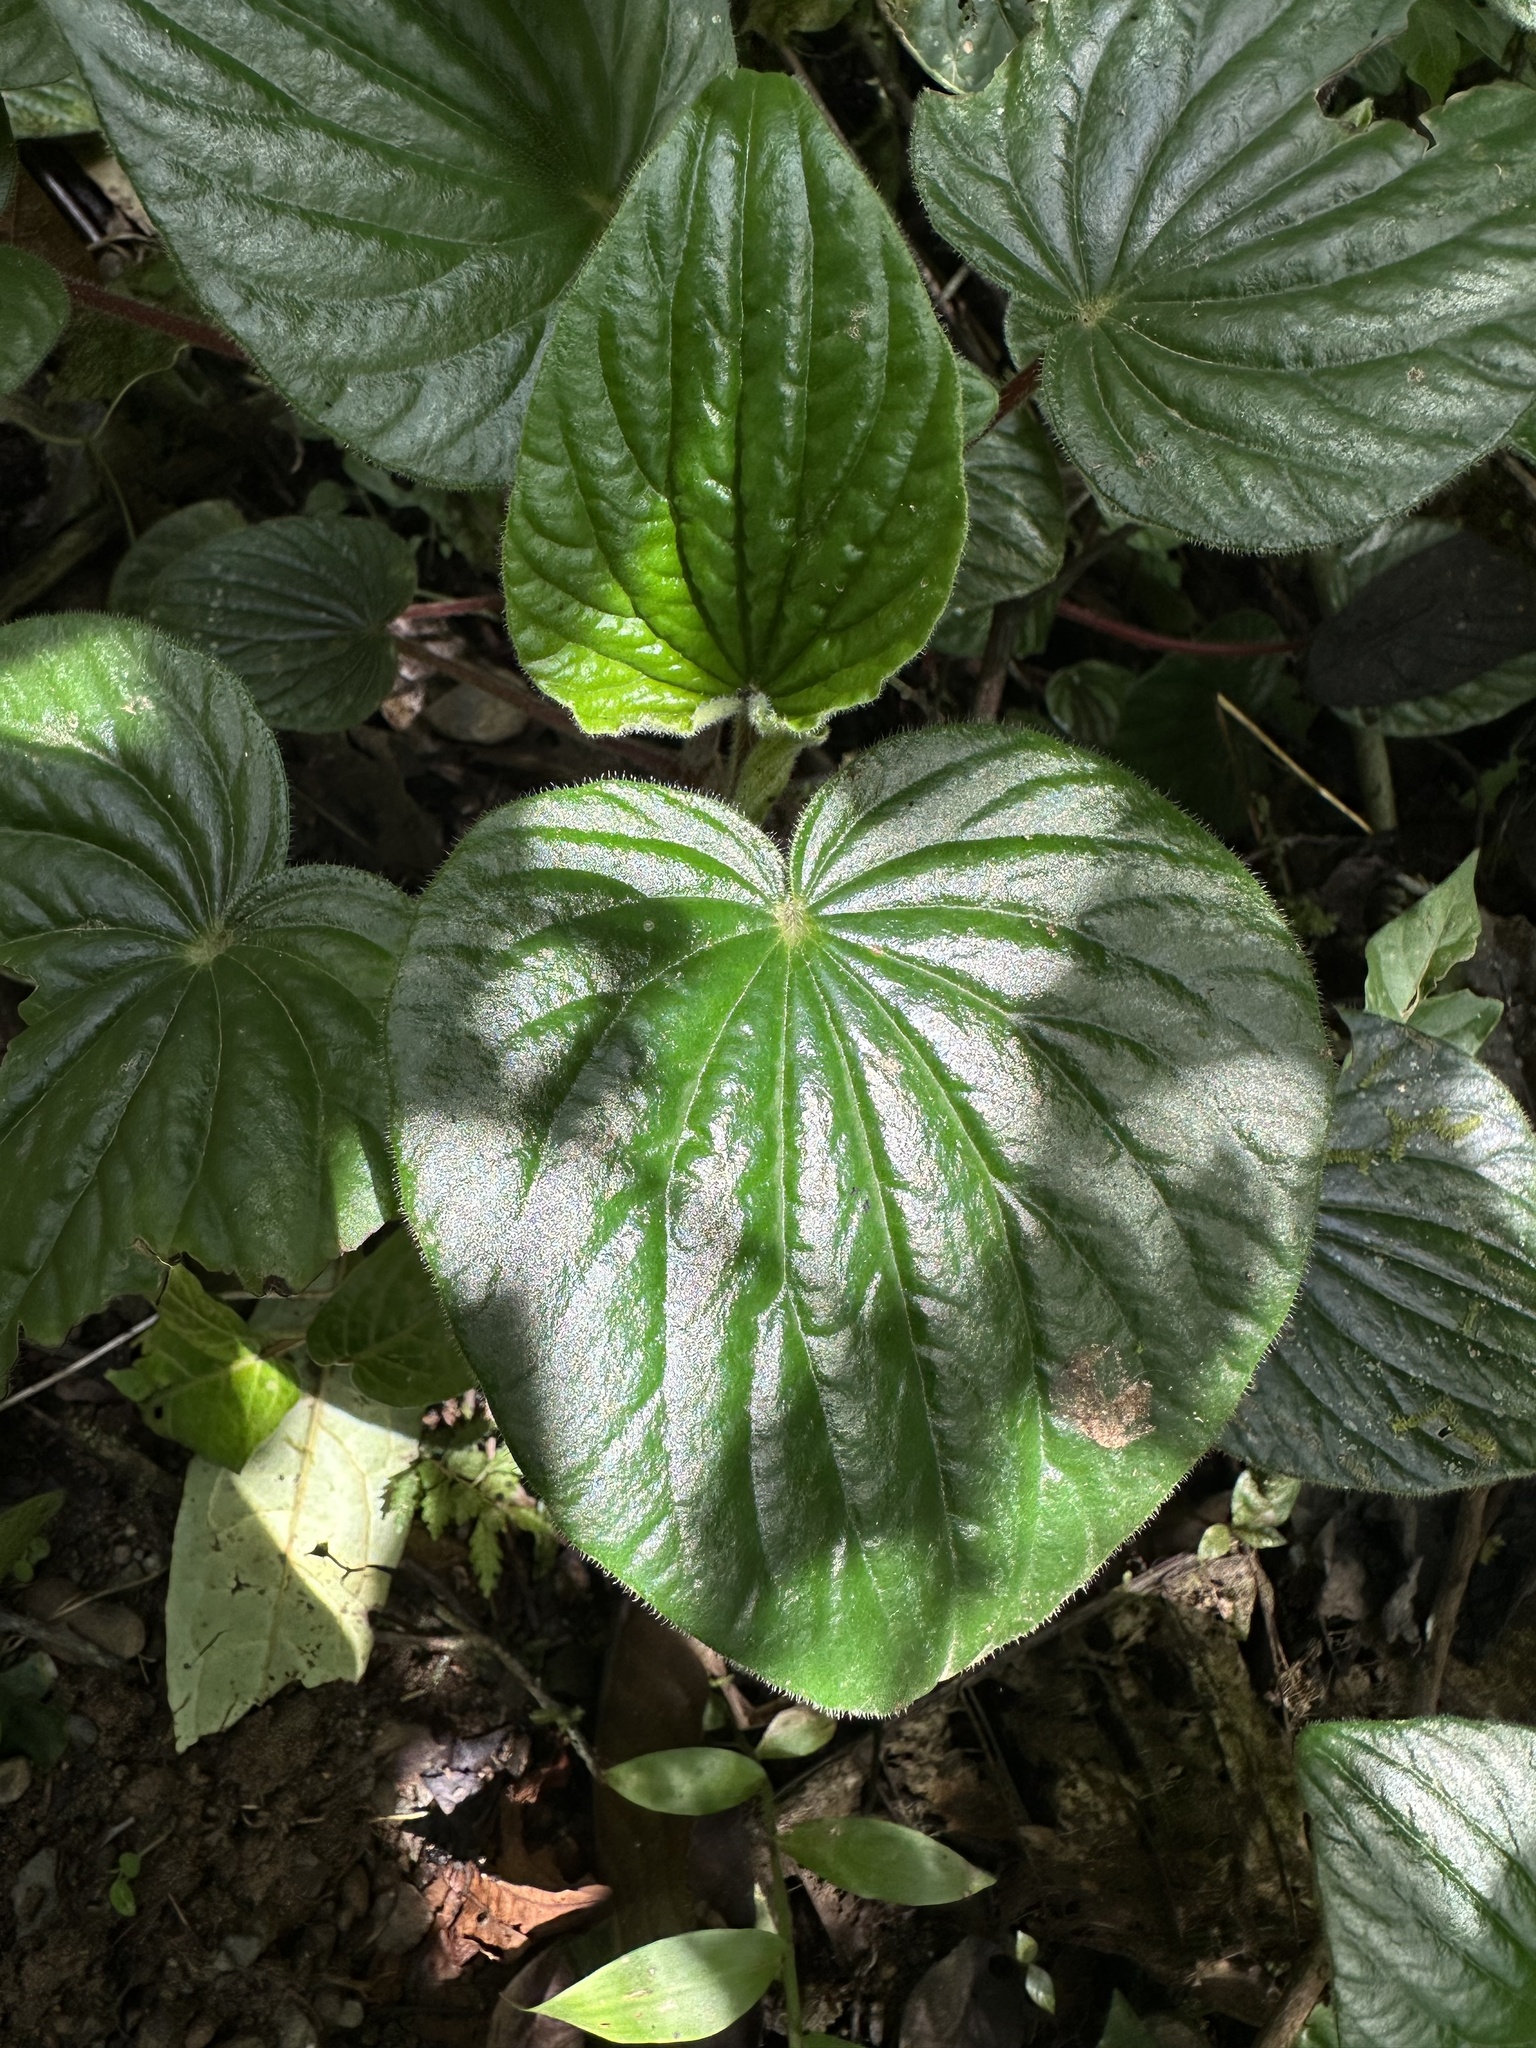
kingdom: Plantae
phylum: Tracheophyta
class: Magnoliopsida
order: Piperales
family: Piperaceae
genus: Peperomia
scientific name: Peperomia rupicola
